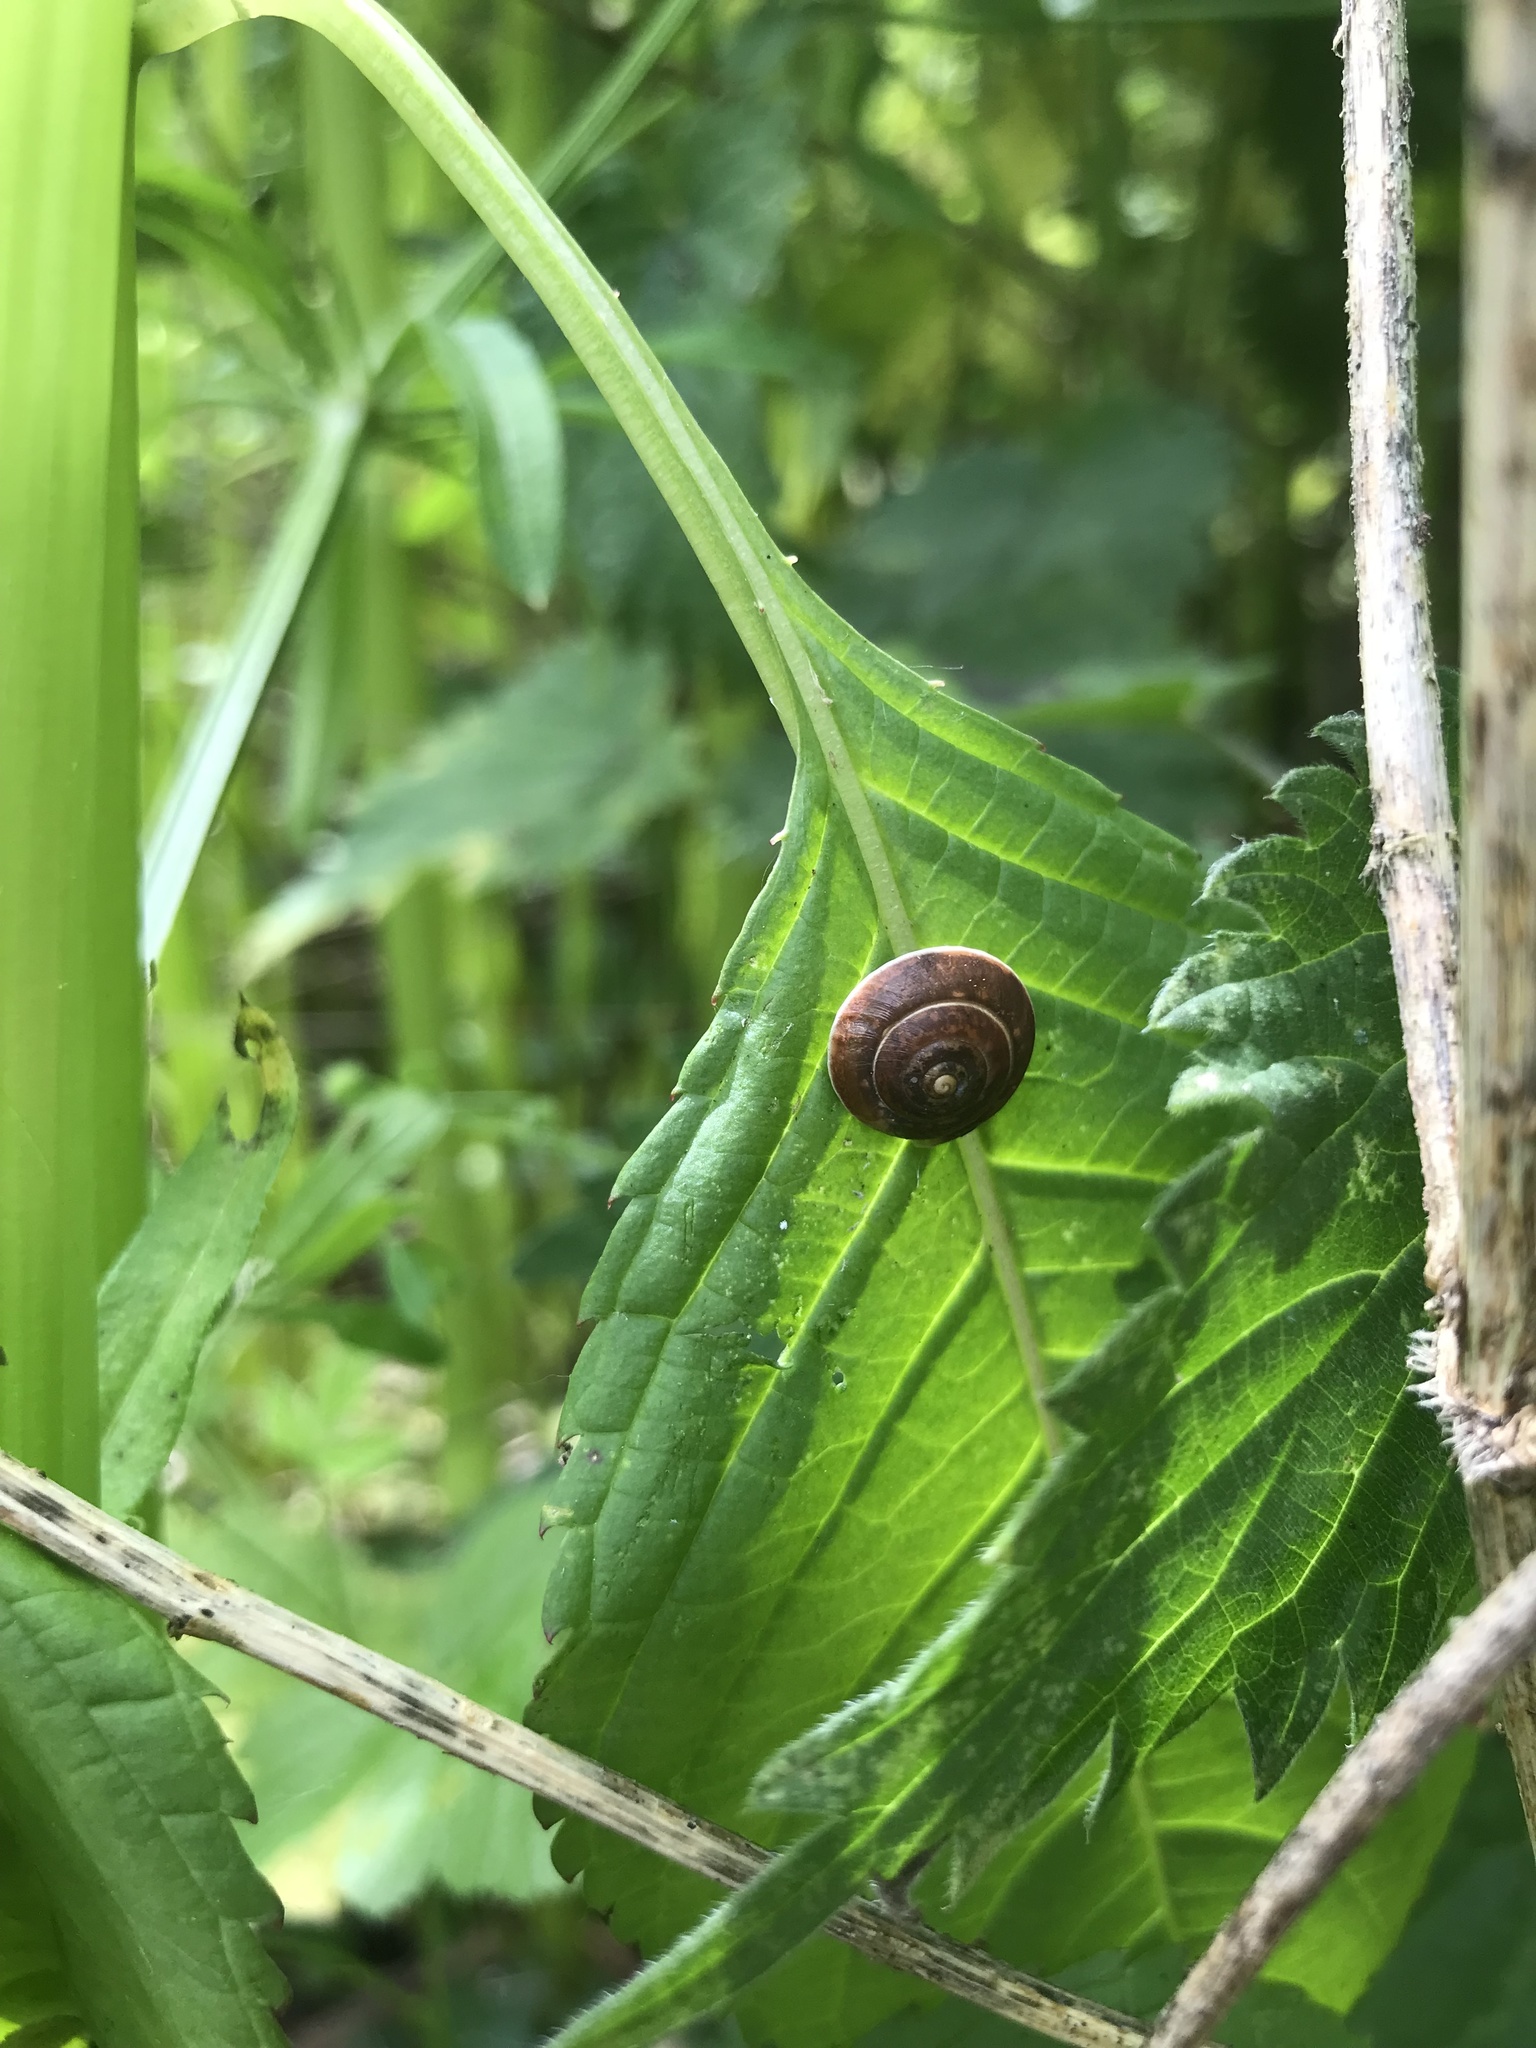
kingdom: Animalia
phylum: Mollusca
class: Gastropoda
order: Stylommatophora
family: Hygromiidae
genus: Hygromia
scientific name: Hygromia cinctella
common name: Girdled snail
